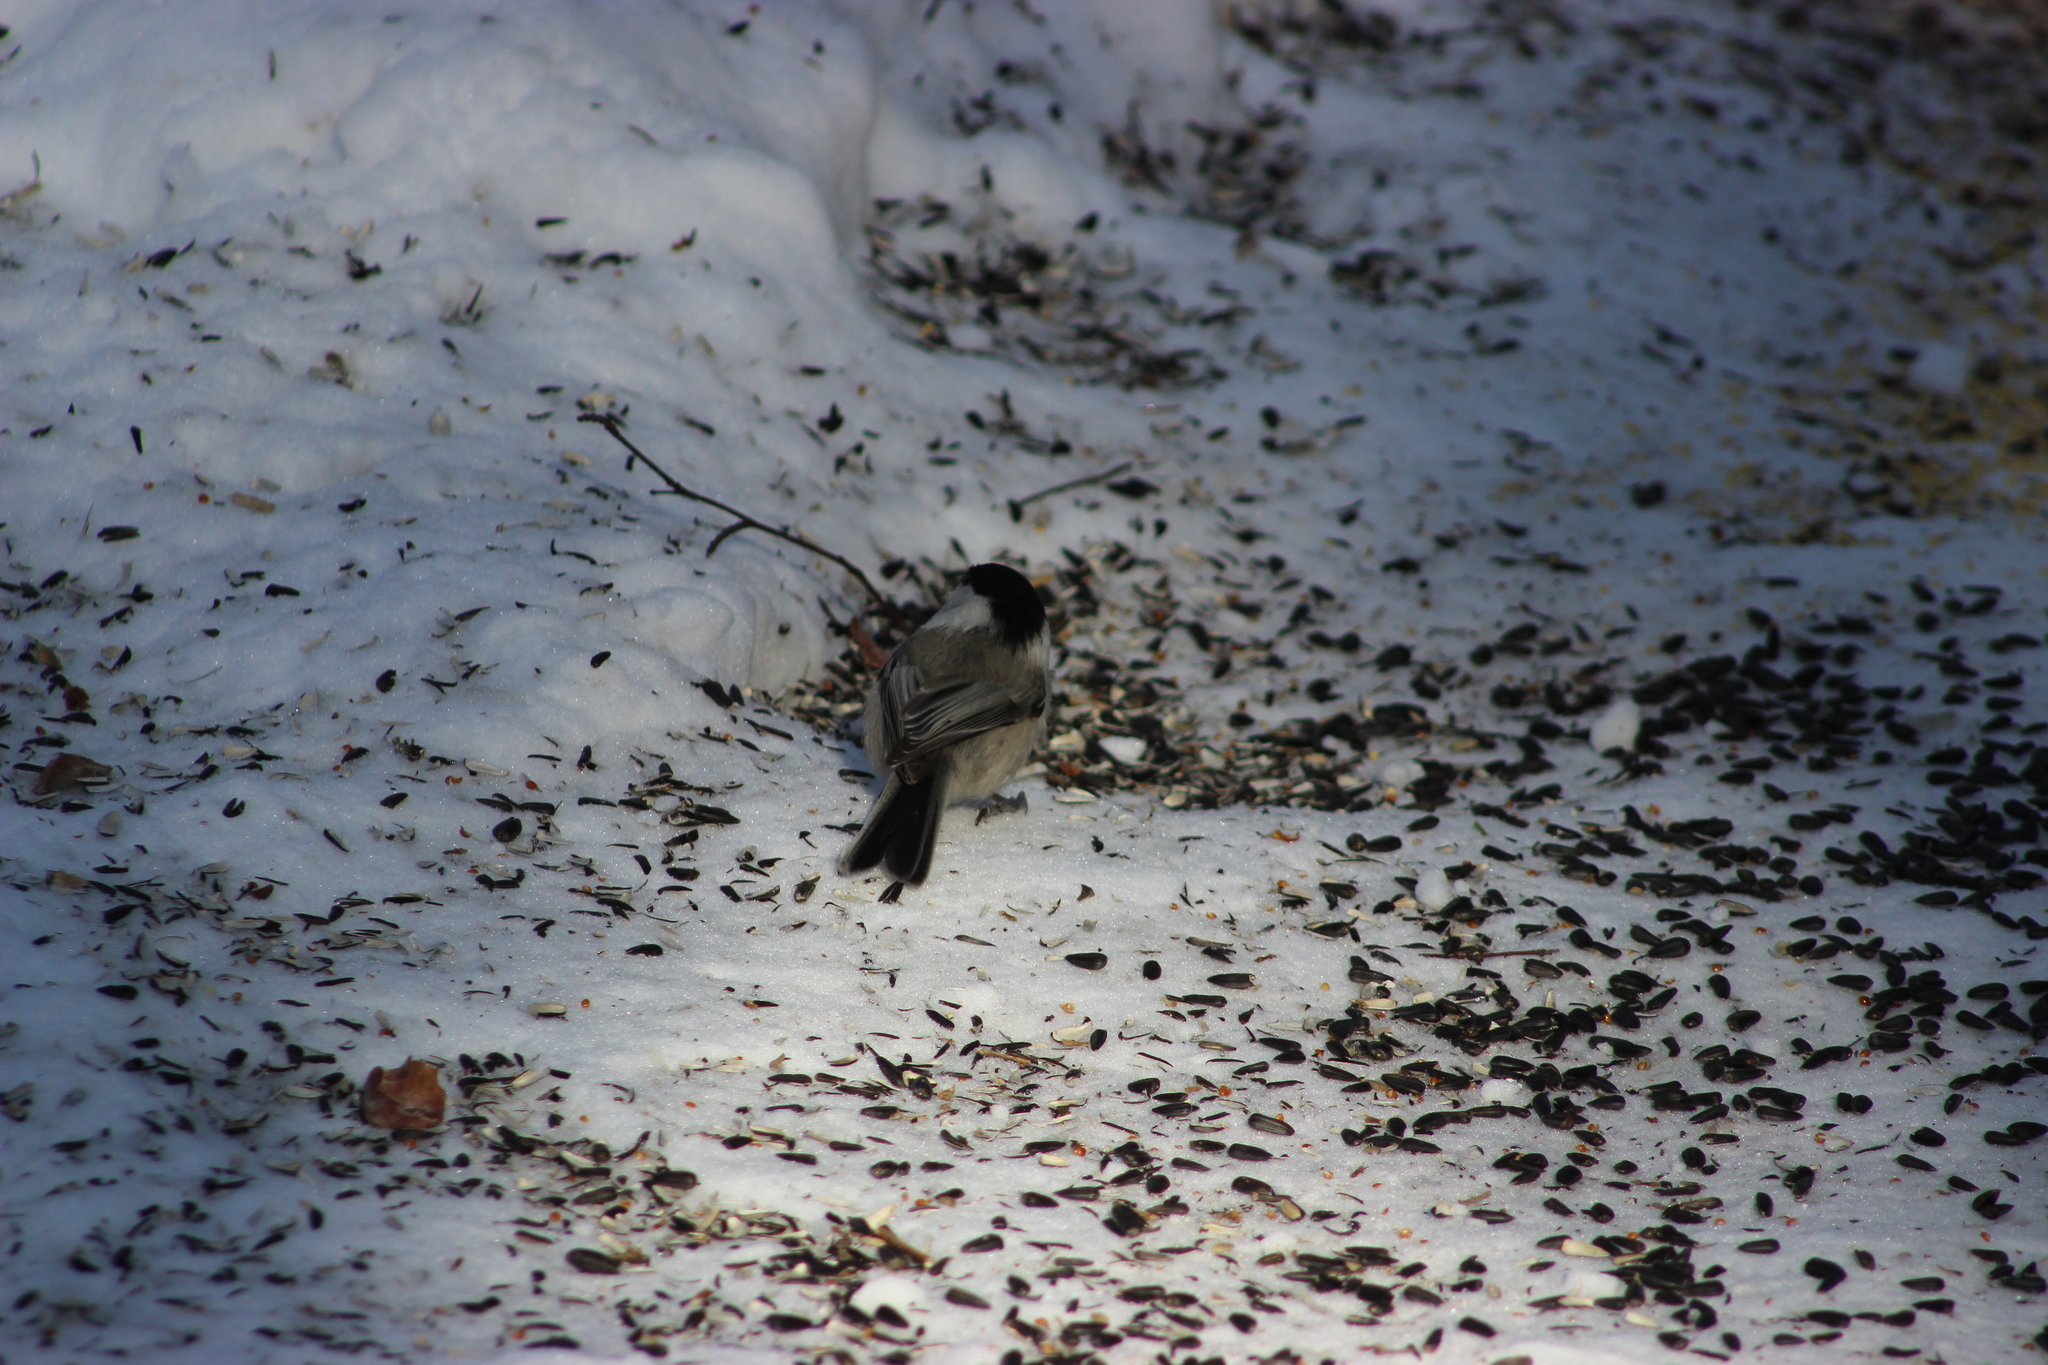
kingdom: Animalia
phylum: Chordata
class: Aves
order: Passeriformes
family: Paridae
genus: Poecile
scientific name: Poecile montanus
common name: Willow tit
